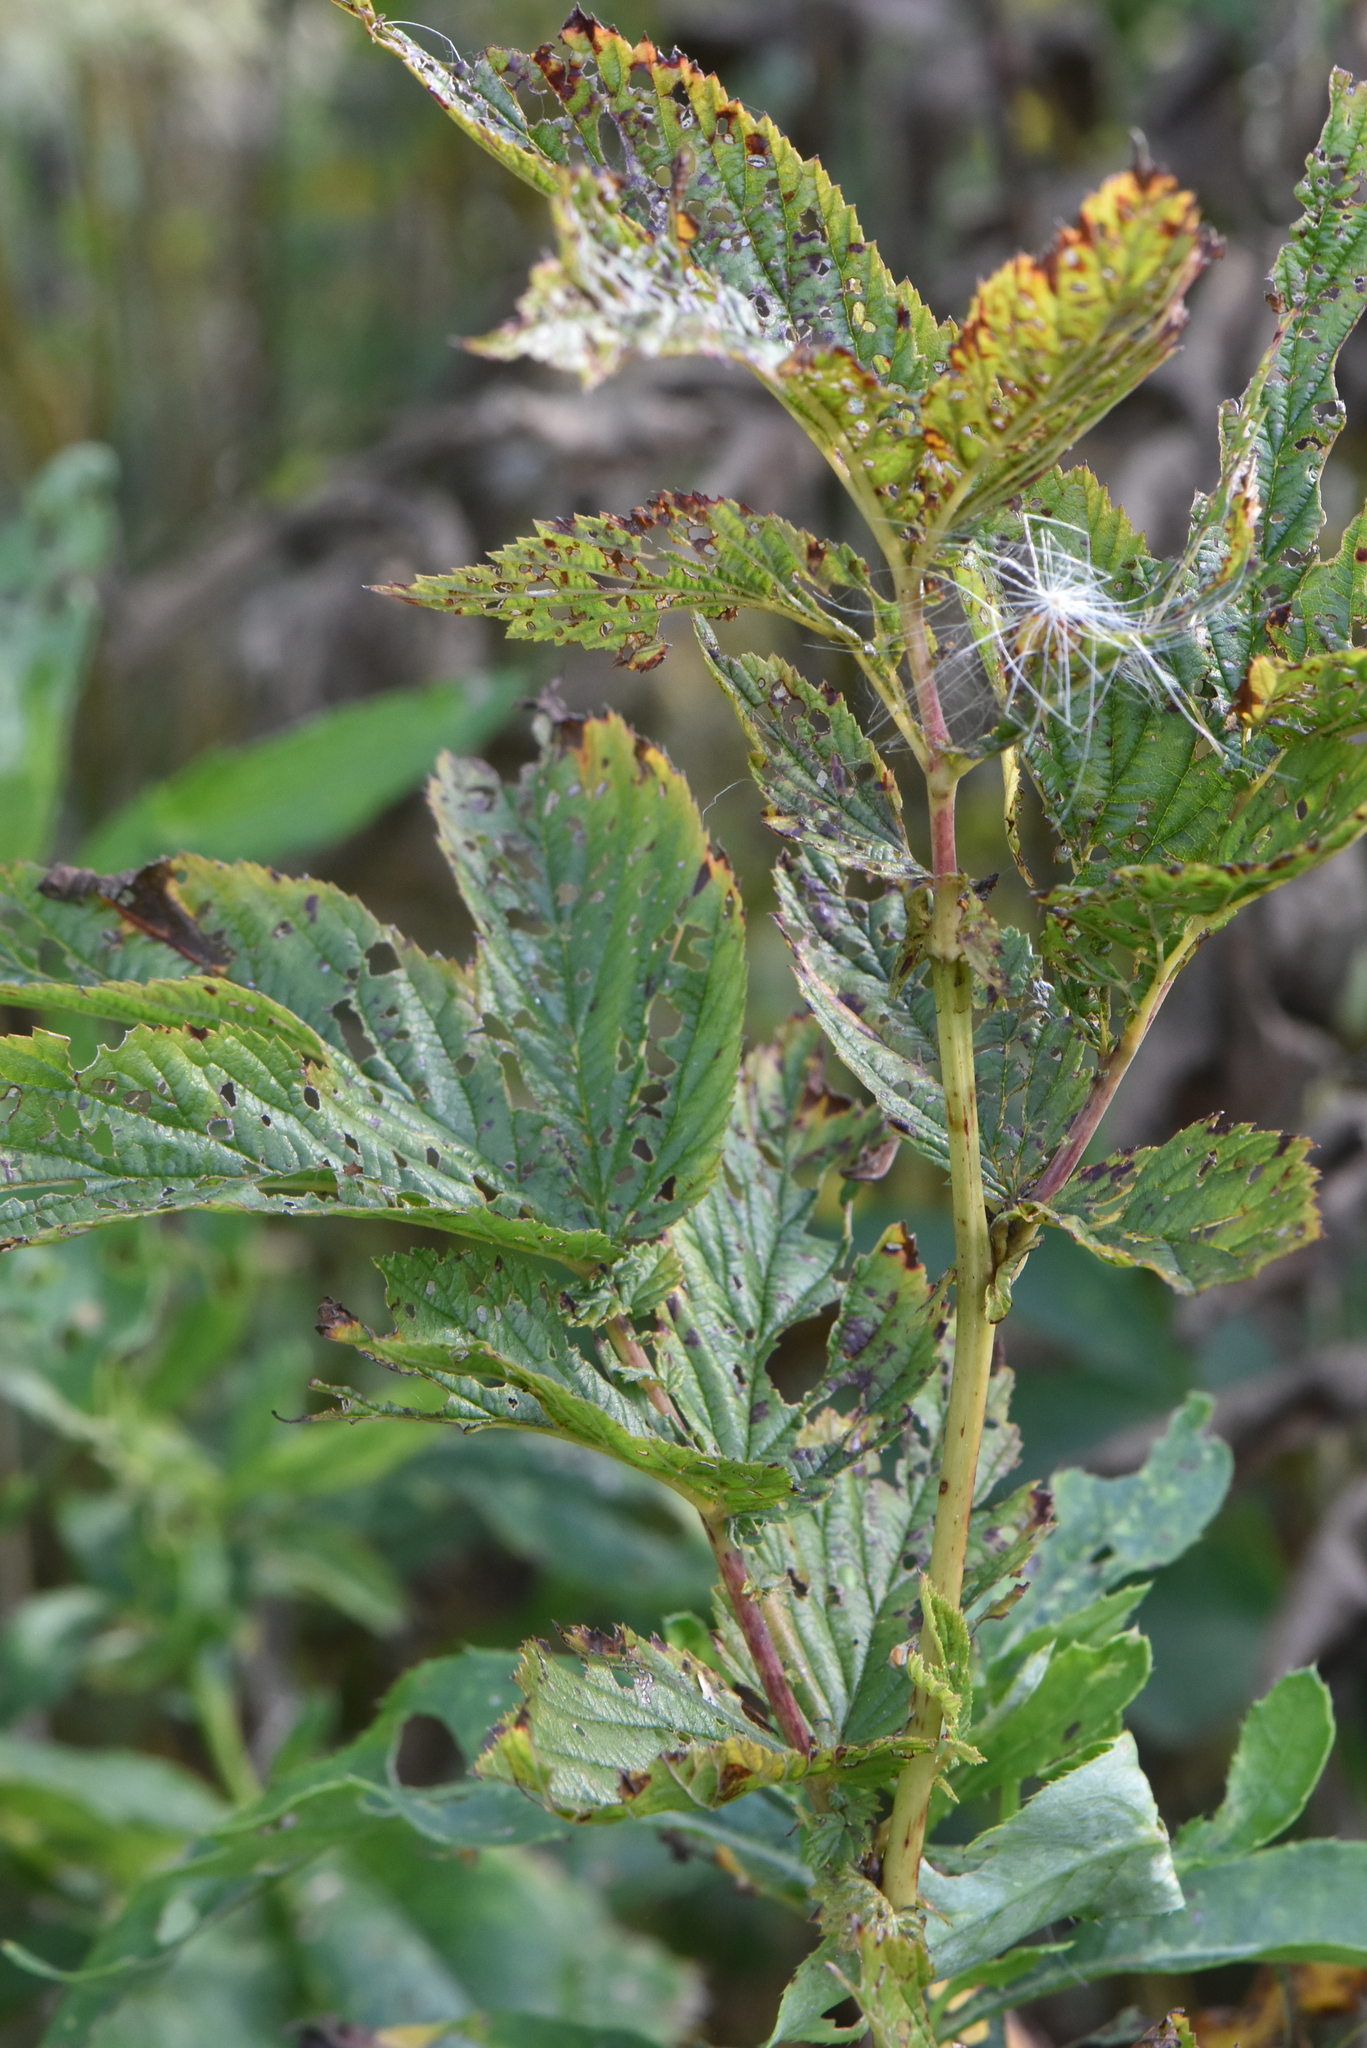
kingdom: Plantae
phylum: Tracheophyta
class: Magnoliopsida
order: Rosales
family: Rosaceae
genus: Filipendula
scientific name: Filipendula ulmaria
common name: Meadowsweet
